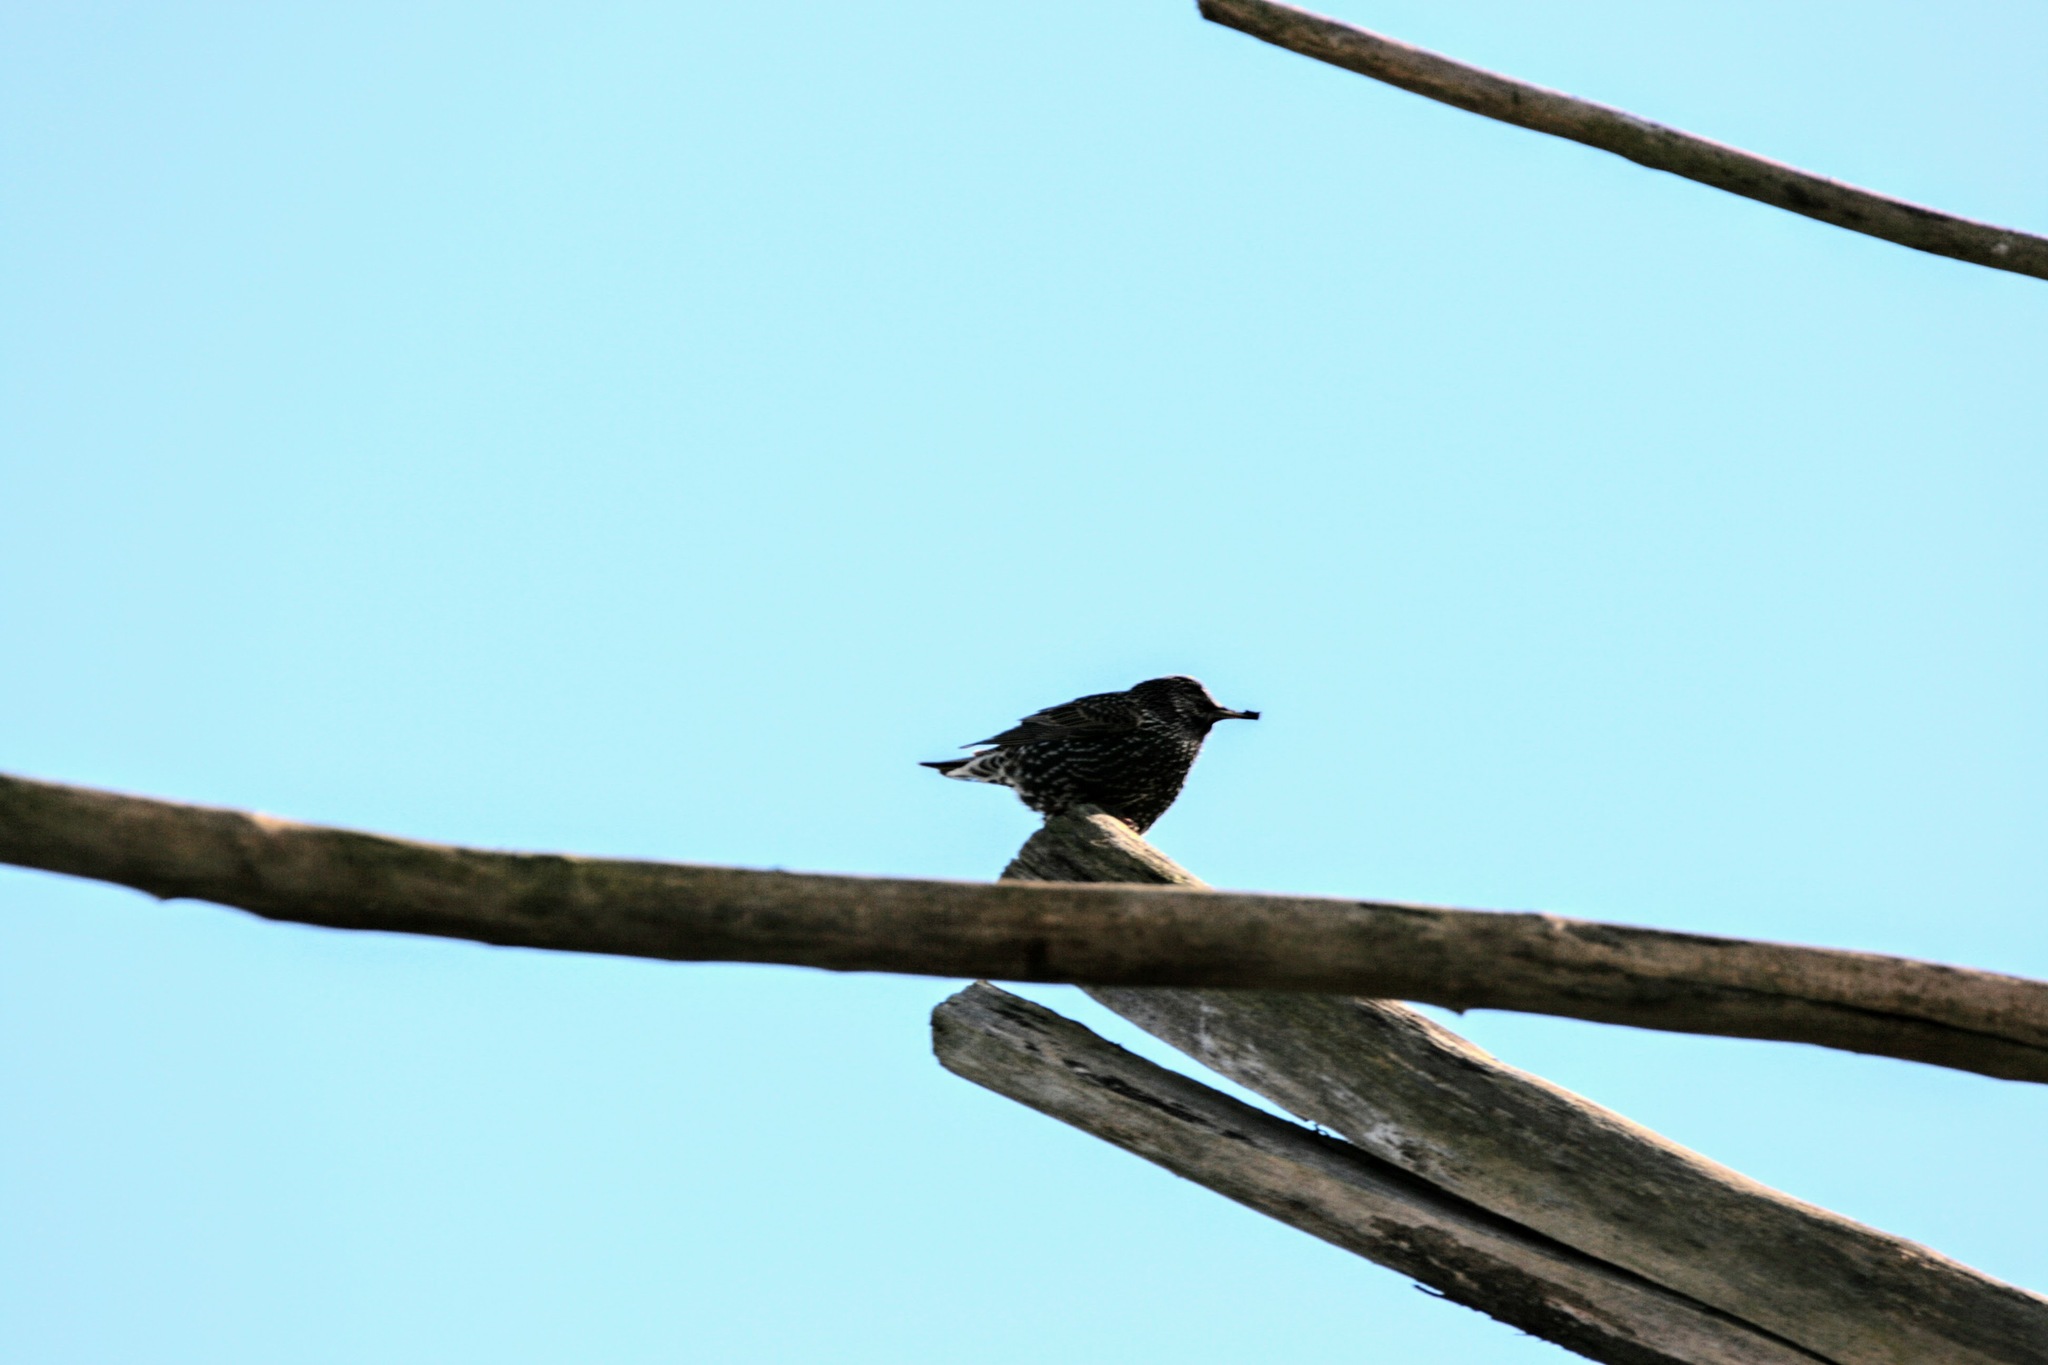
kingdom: Animalia
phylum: Chordata
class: Aves
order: Passeriformes
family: Sturnidae
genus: Sturnus
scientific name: Sturnus vulgaris
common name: Common starling
